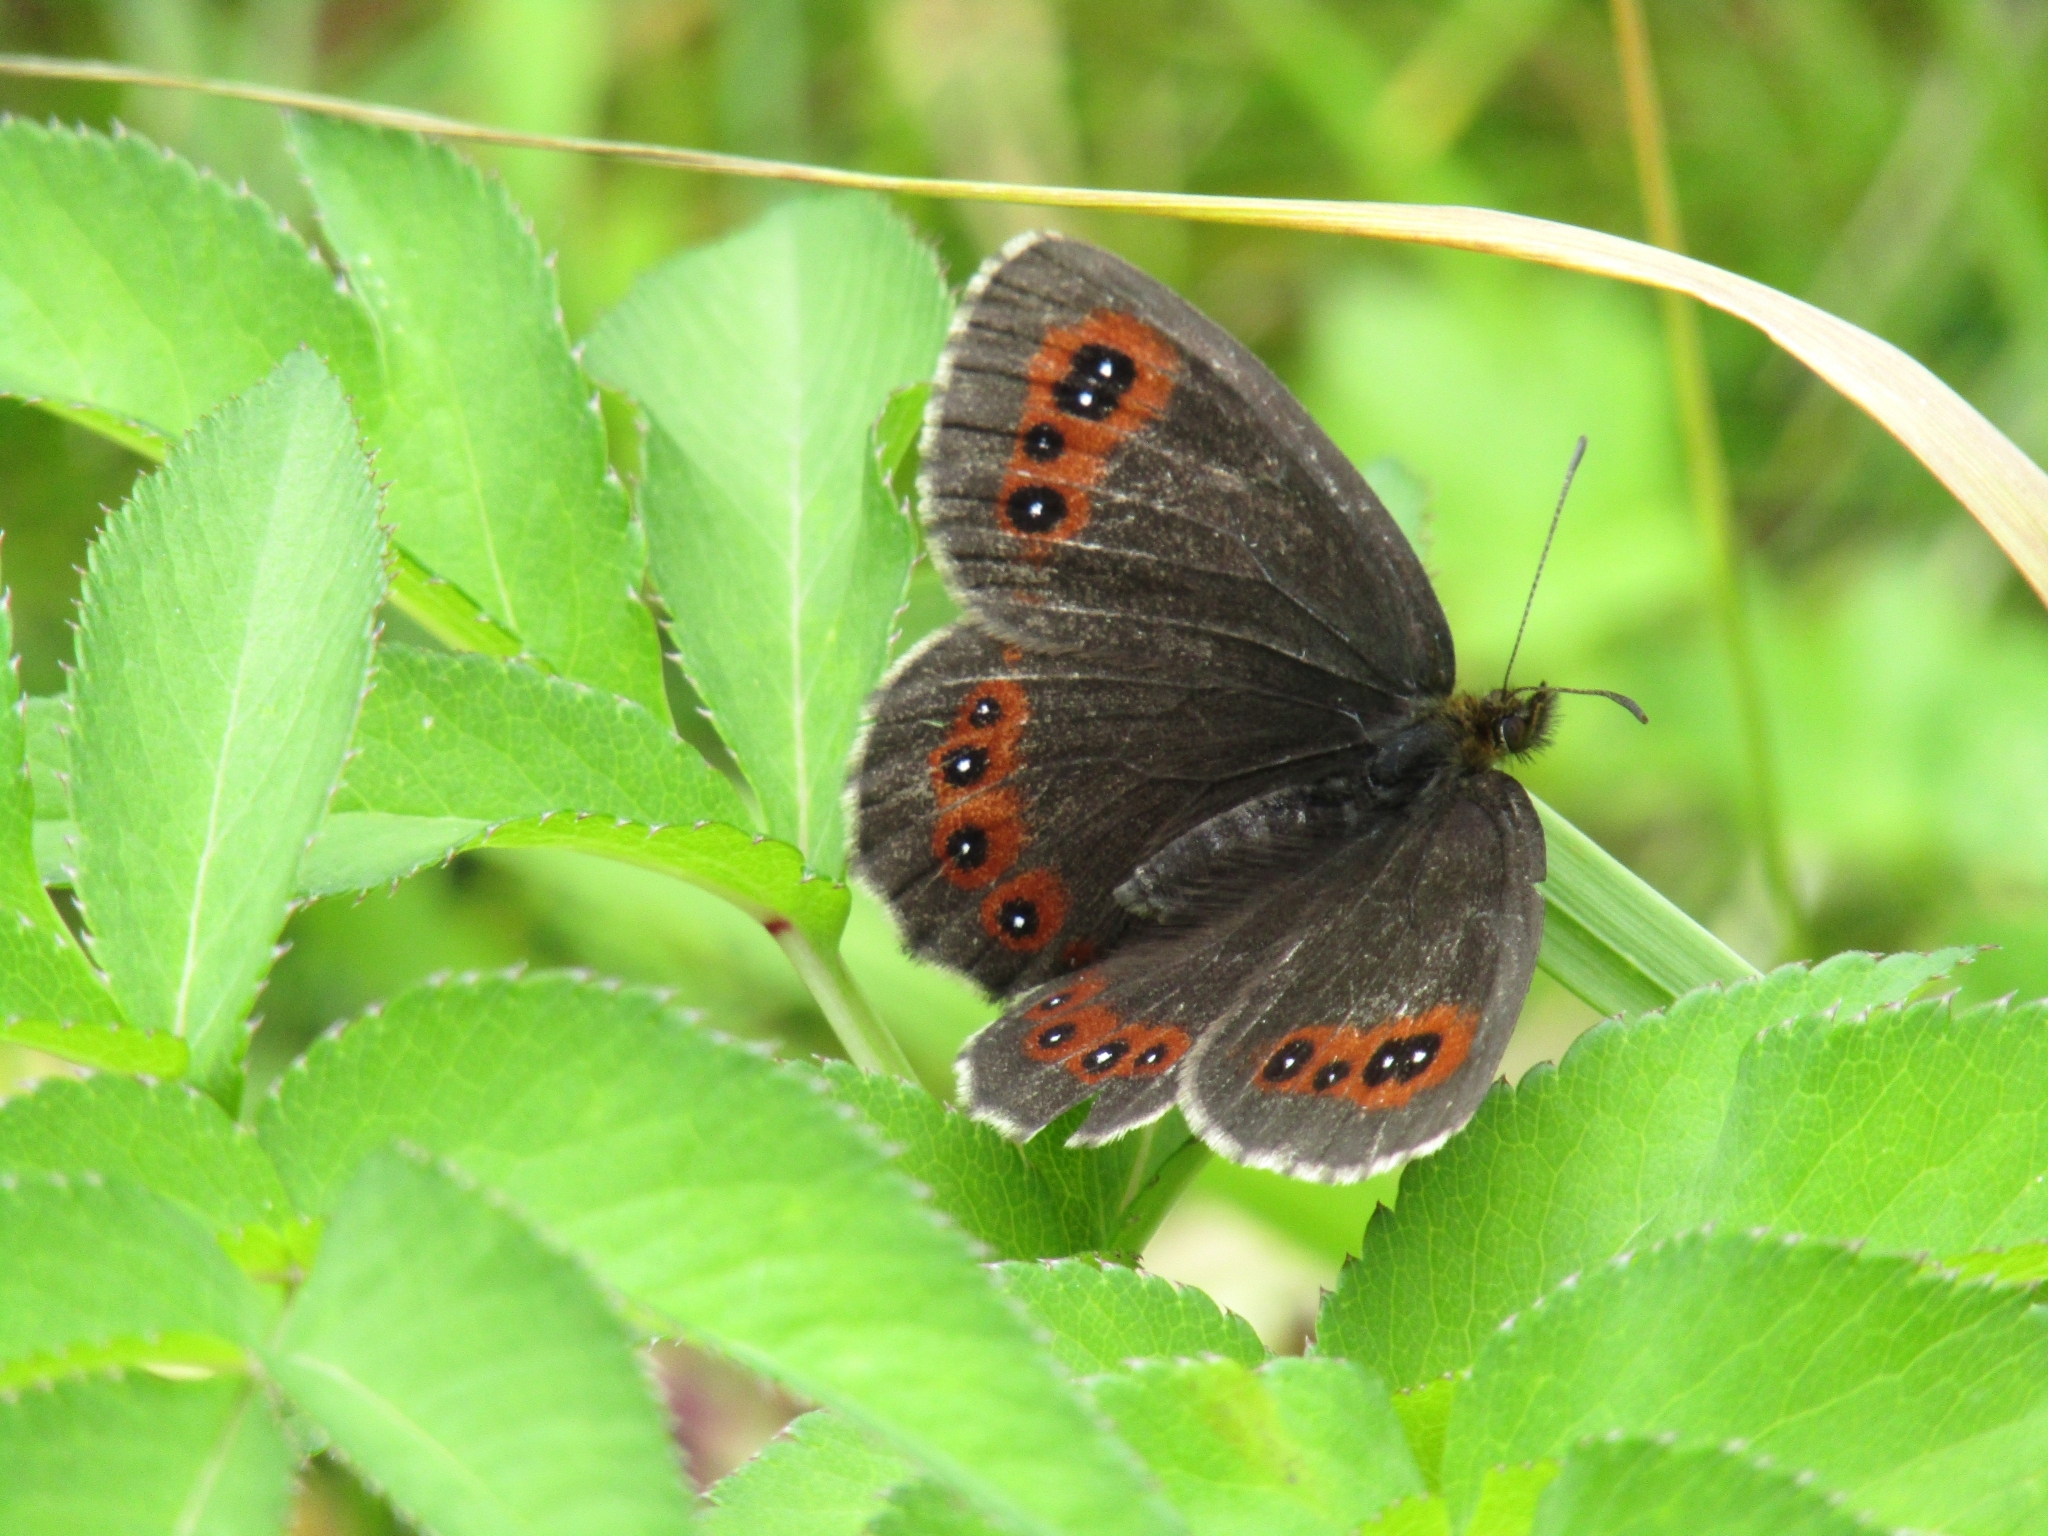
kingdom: Animalia
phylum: Arthropoda
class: Insecta
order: Lepidoptera
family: Nymphalidae
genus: Erebia
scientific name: Erebia aethiops
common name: Scotch argus
